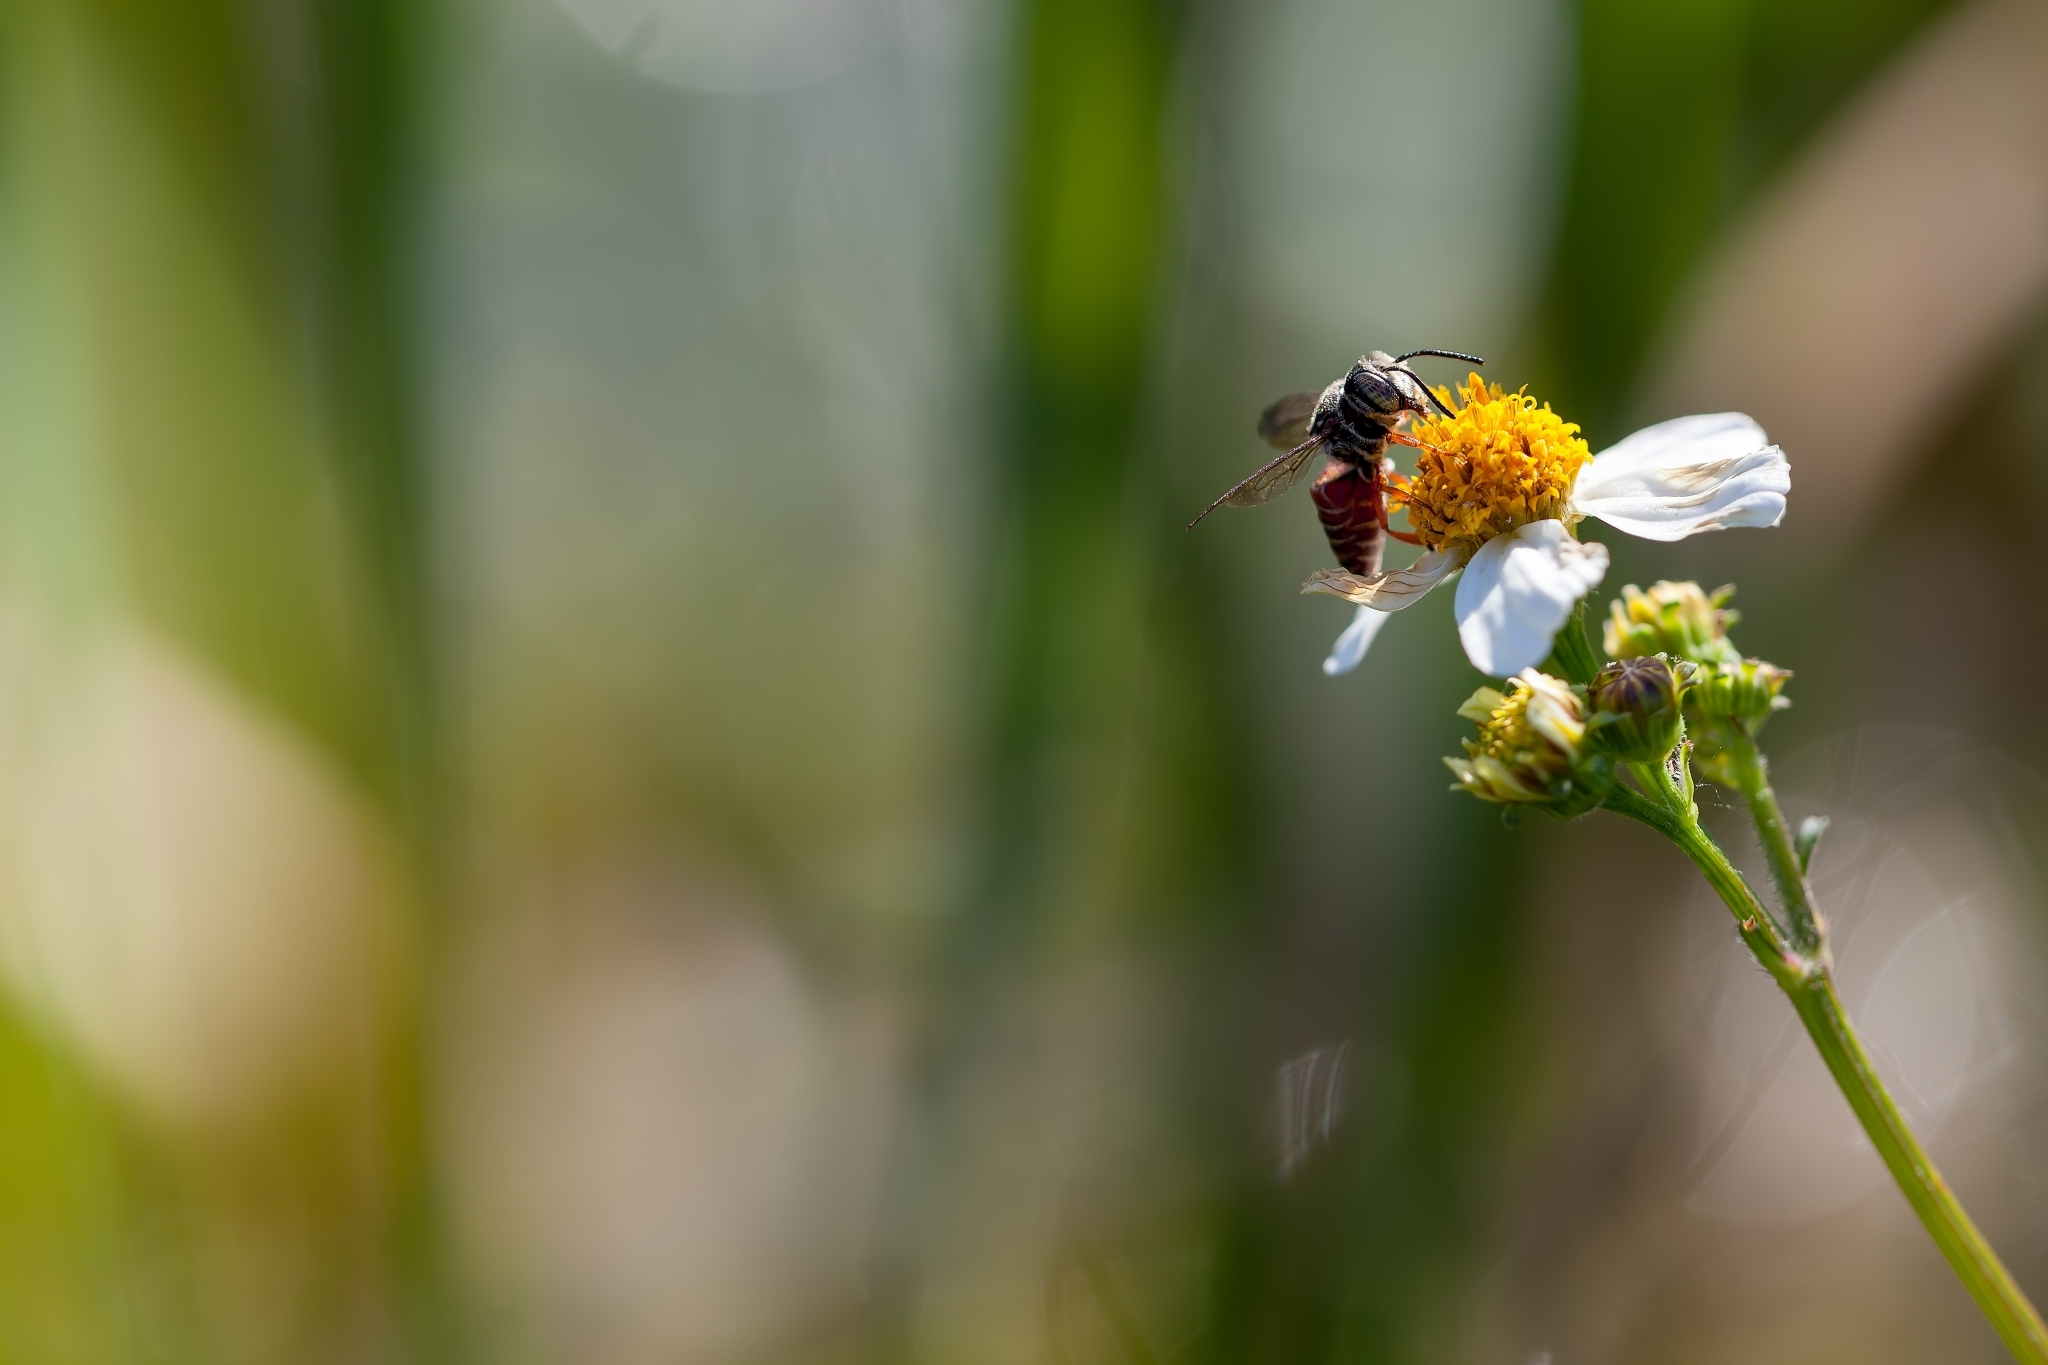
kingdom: Animalia
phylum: Arthropoda
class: Insecta
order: Hymenoptera
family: Megachilidae
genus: Coelioxys
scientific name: Coelioxys slossoni
